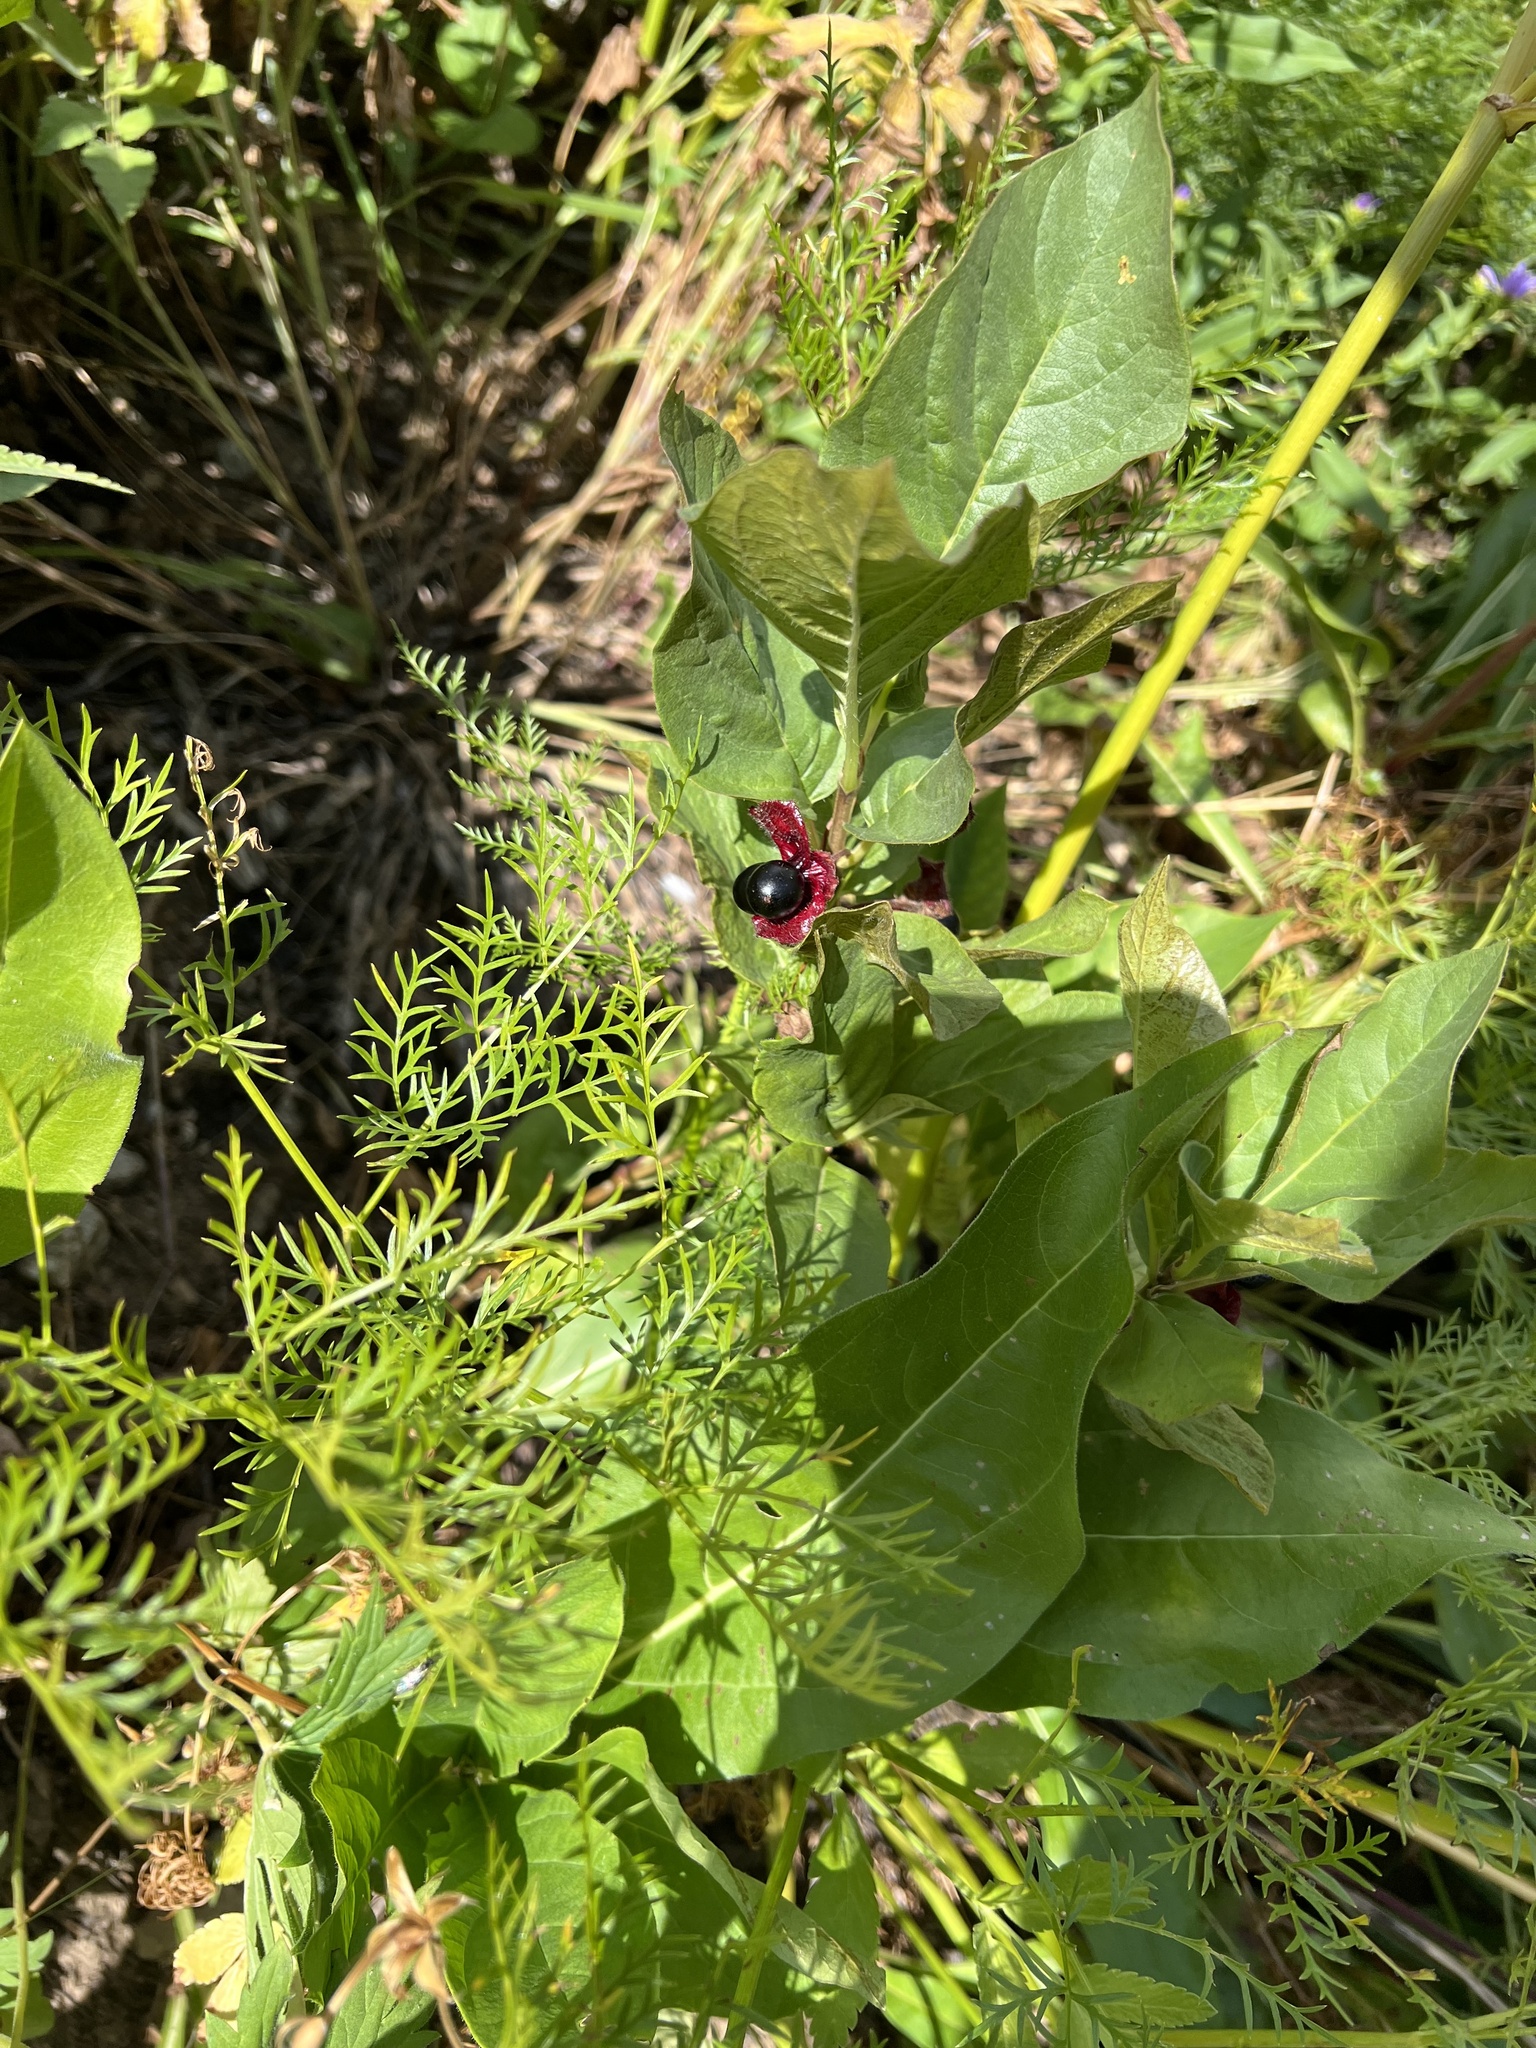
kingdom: Plantae
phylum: Tracheophyta
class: Magnoliopsida
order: Dipsacales
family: Caprifoliaceae
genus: Lonicera
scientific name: Lonicera involucrata
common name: Californian honeysuckle
